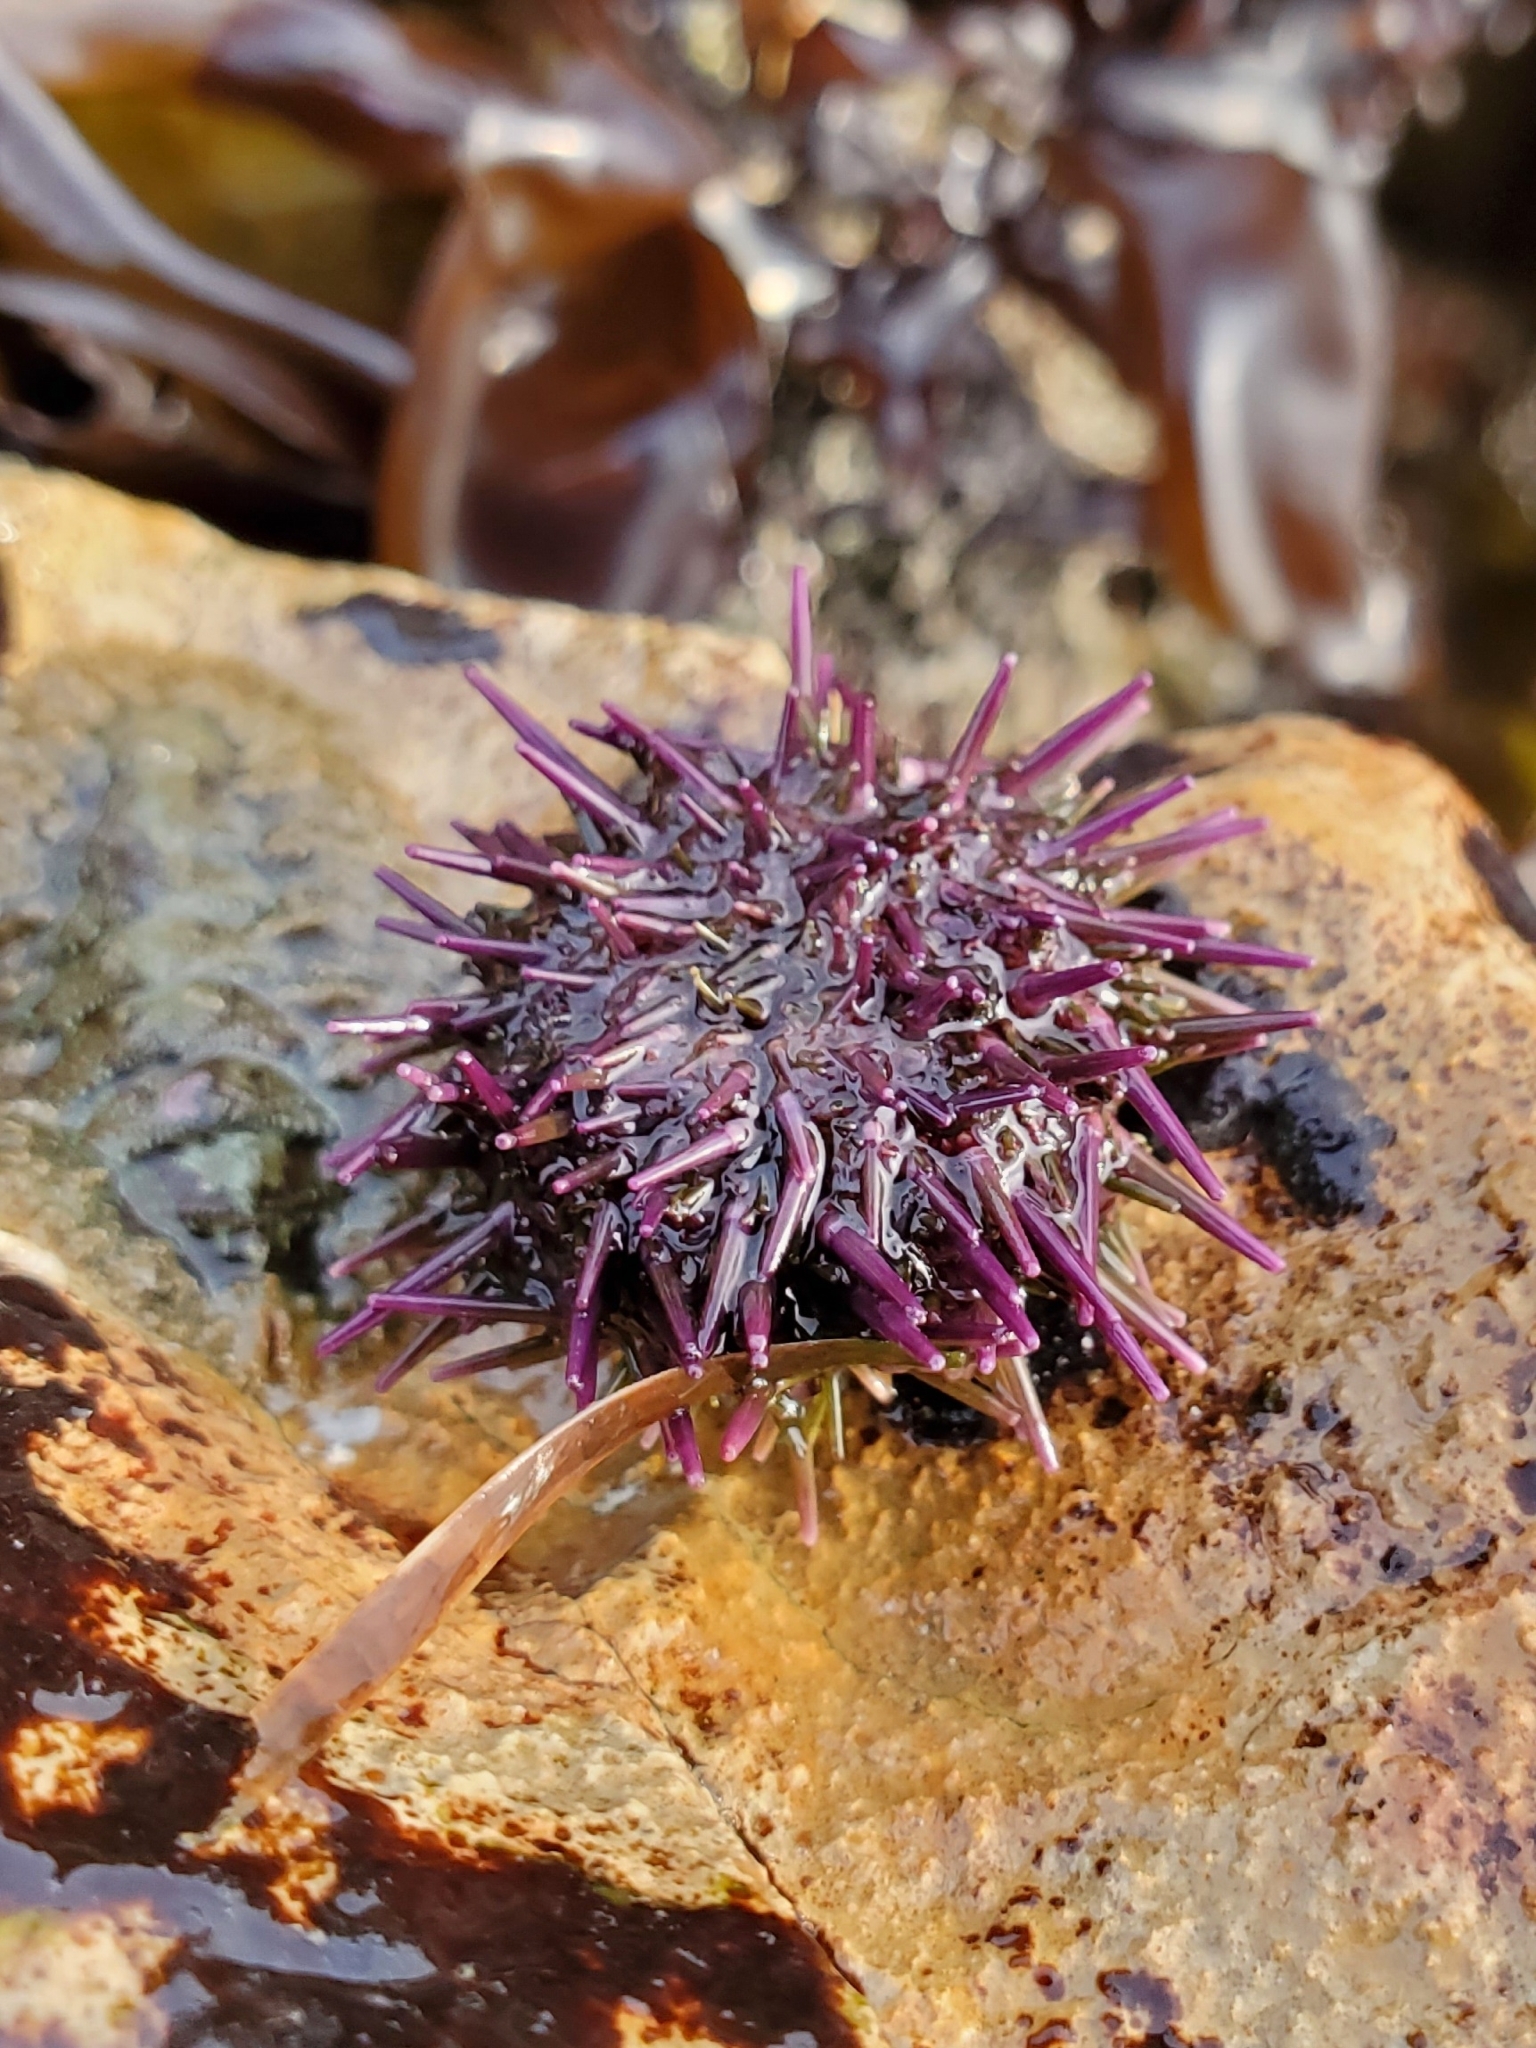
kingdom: Animalia
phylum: Echinodermata
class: Echinoidea
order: Camarodonta
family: Strongylocentrotidae
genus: Strongylocentrotus
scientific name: Strongylocentrotus purpuratus
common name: Purple sea urchin
